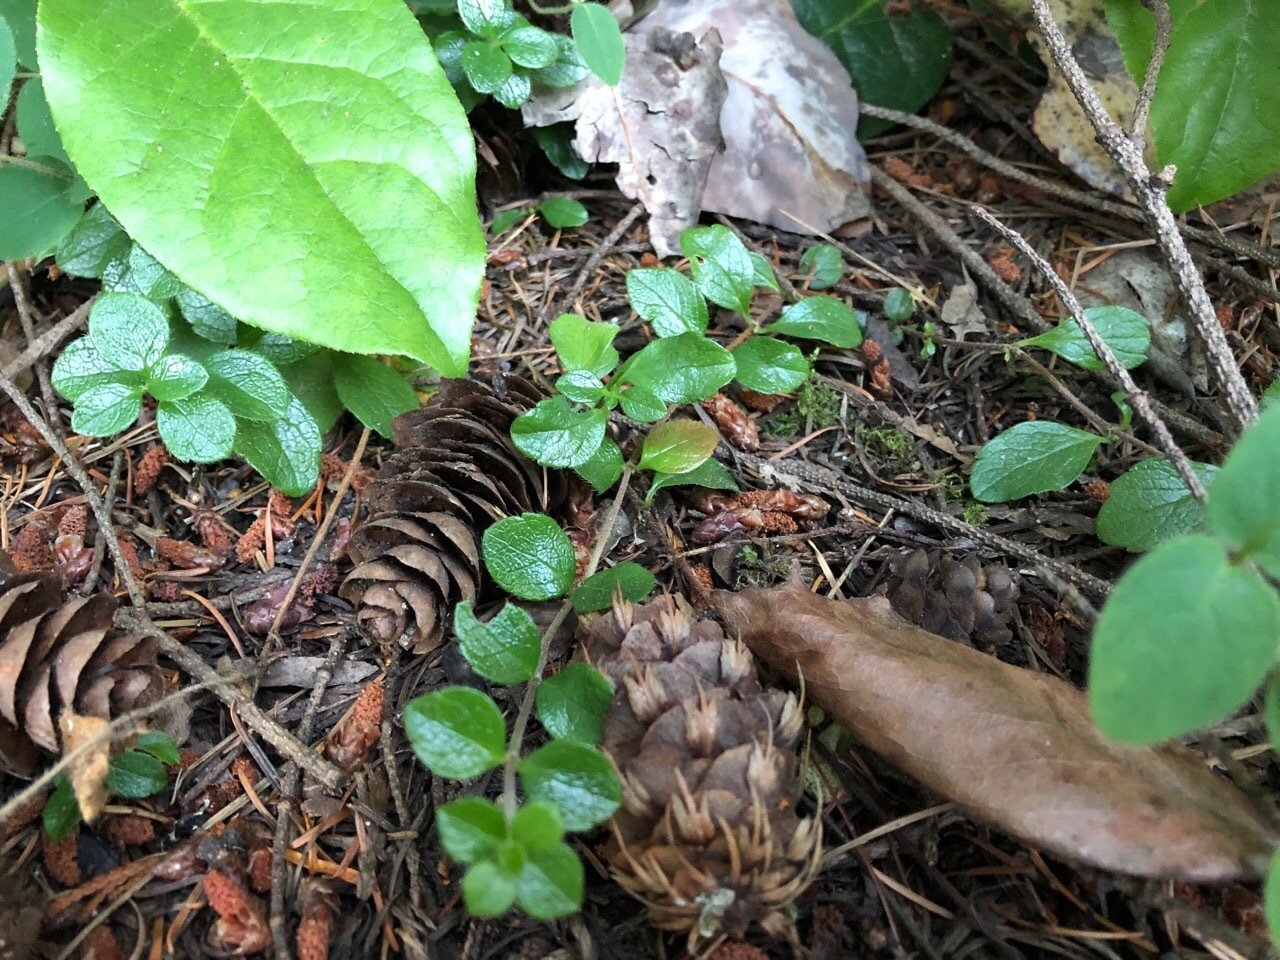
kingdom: Plantae
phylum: Tracheophyta
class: Magnoliopsida
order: Dipsacales
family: Caprifoliaceae
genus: Linnaea
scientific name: Linnaea borealis
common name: Twinflower
